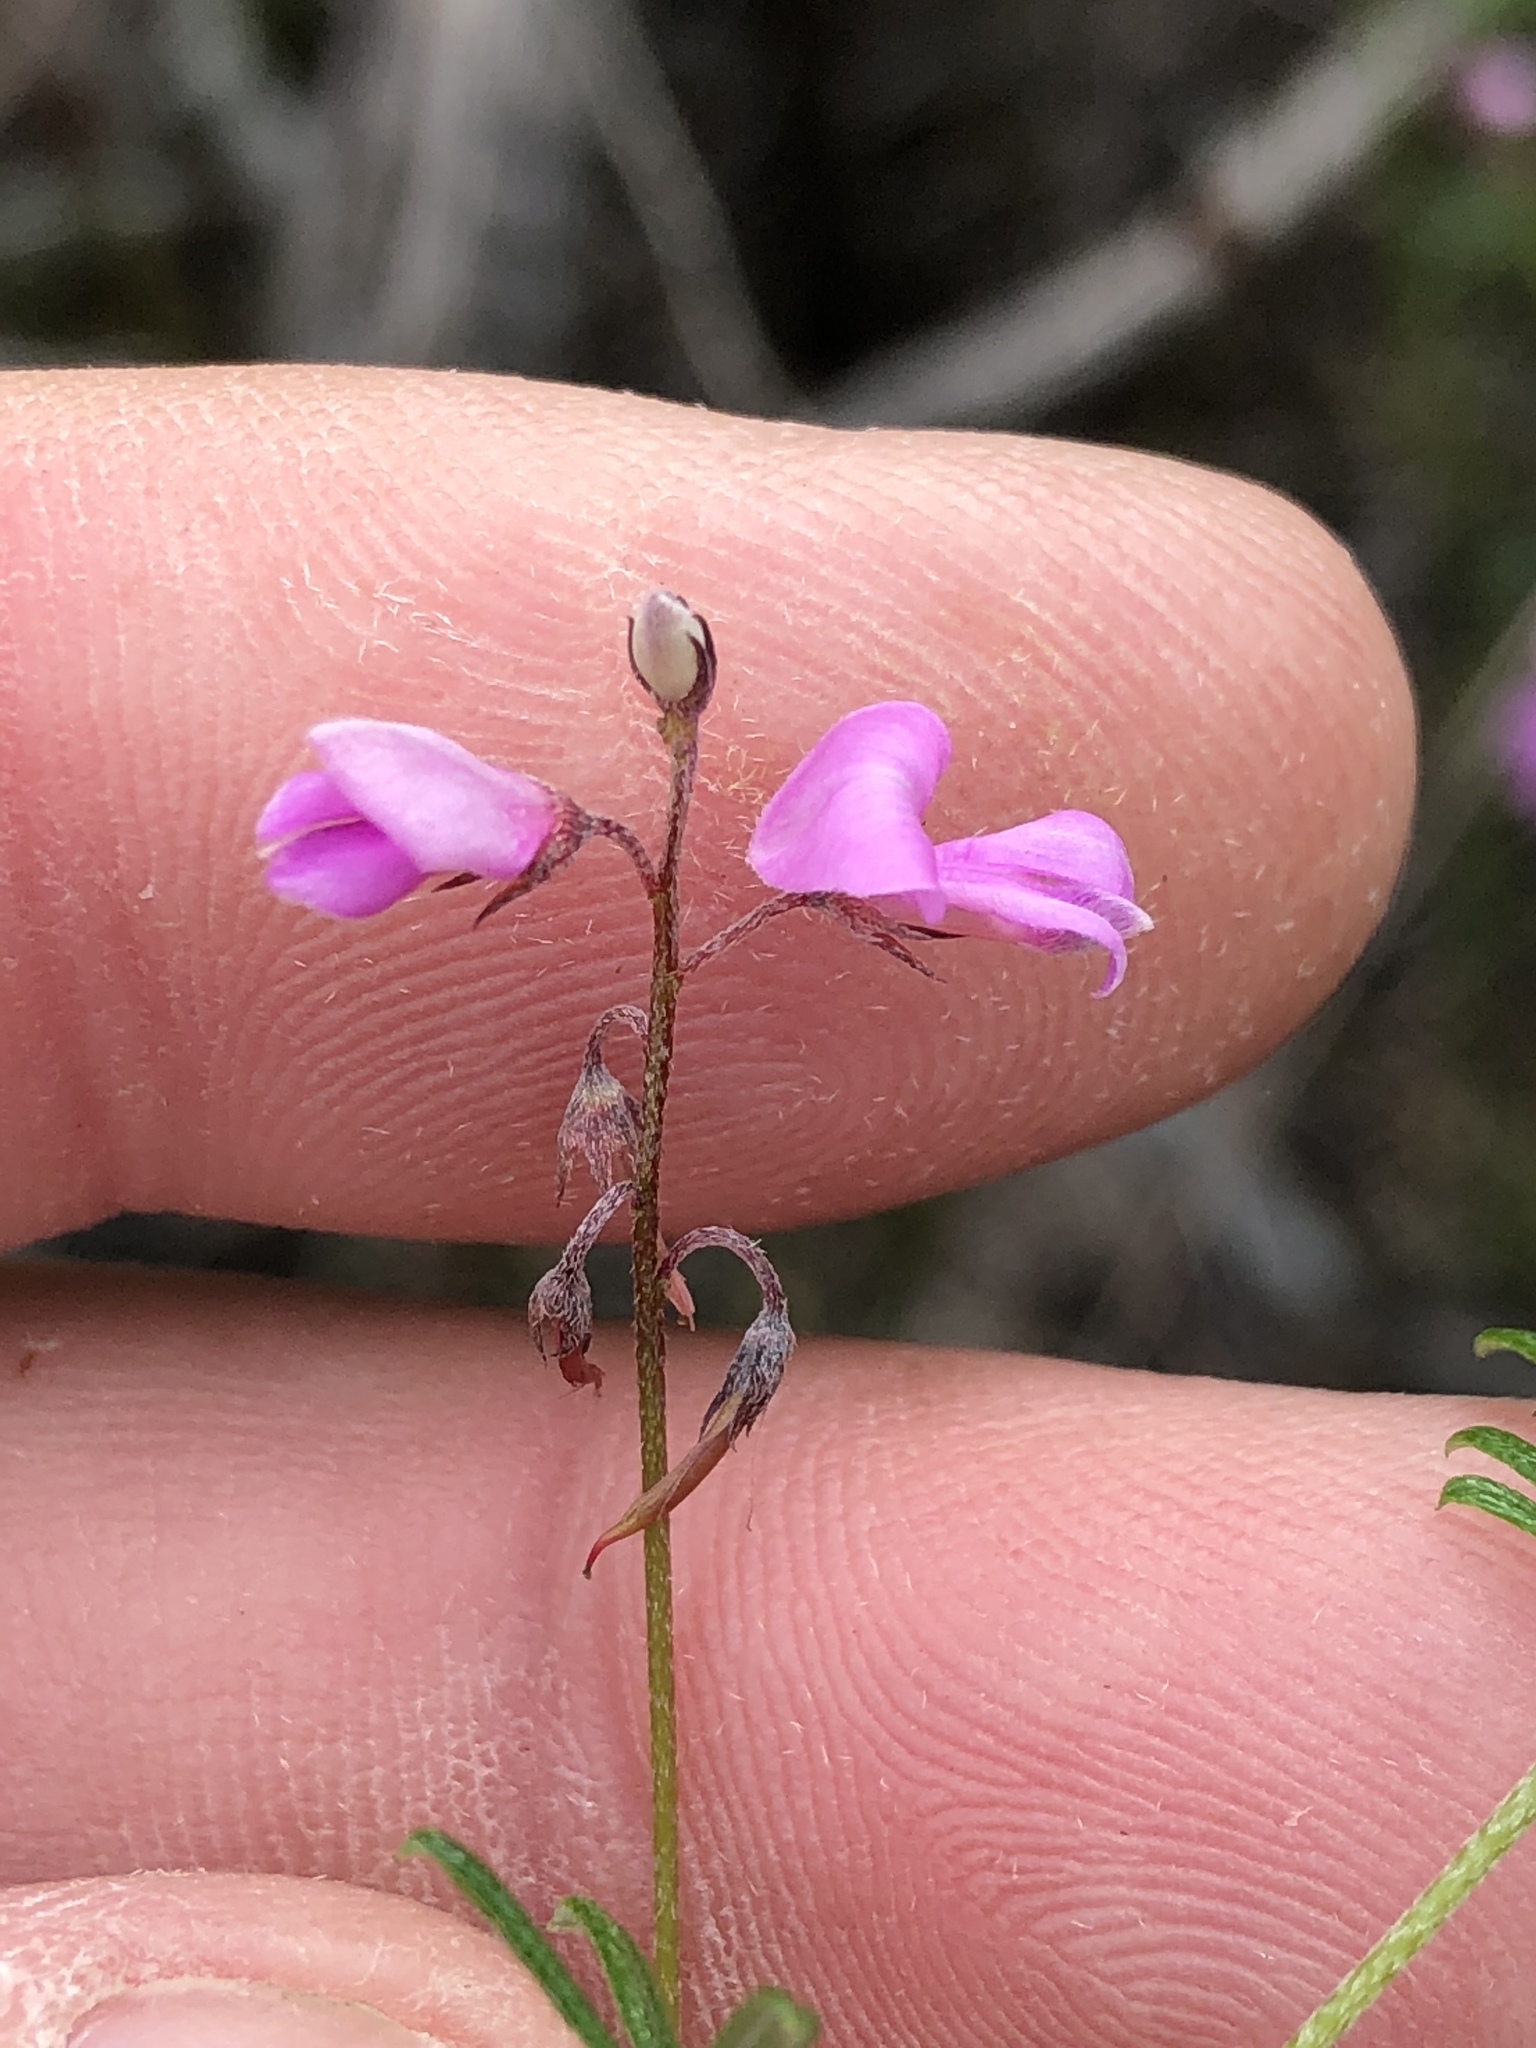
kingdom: Plantae
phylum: Tracheophyta
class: Magnoliopsida
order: Fabales
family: Fabaceae
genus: Indigofera
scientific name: Indigofera angustifolia
